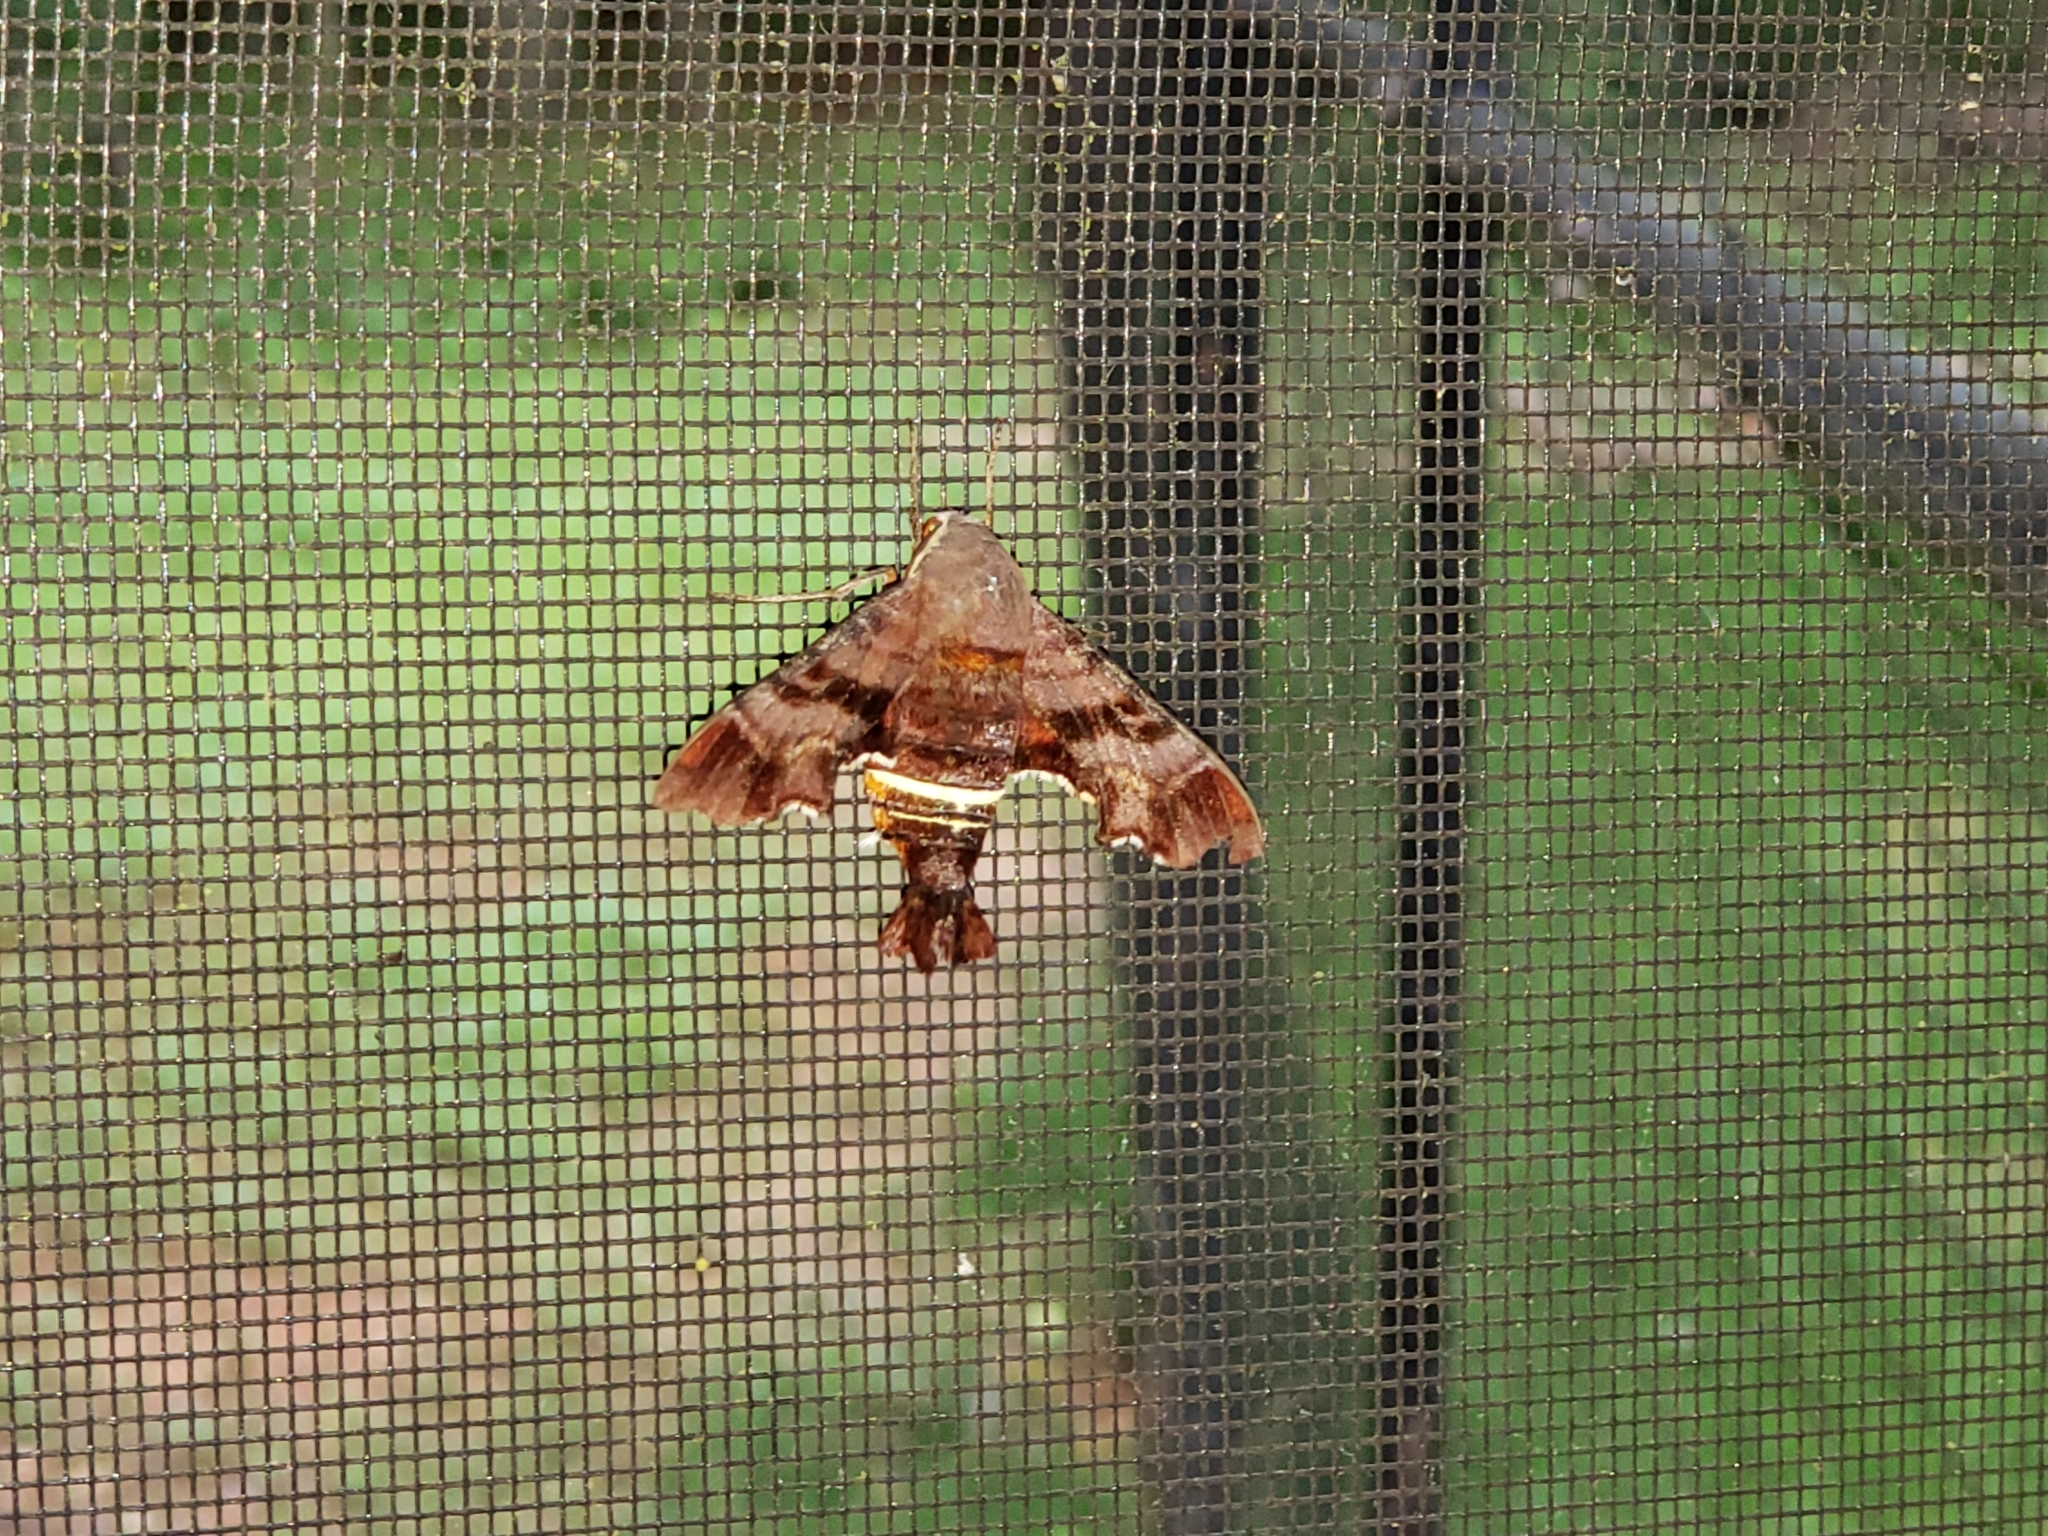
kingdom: Animalia
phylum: Arthropoda
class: Insecta
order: Lepidoptera
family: Sphingidae
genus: Amphion
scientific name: Amphion floridensis
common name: Nessus sphinx
